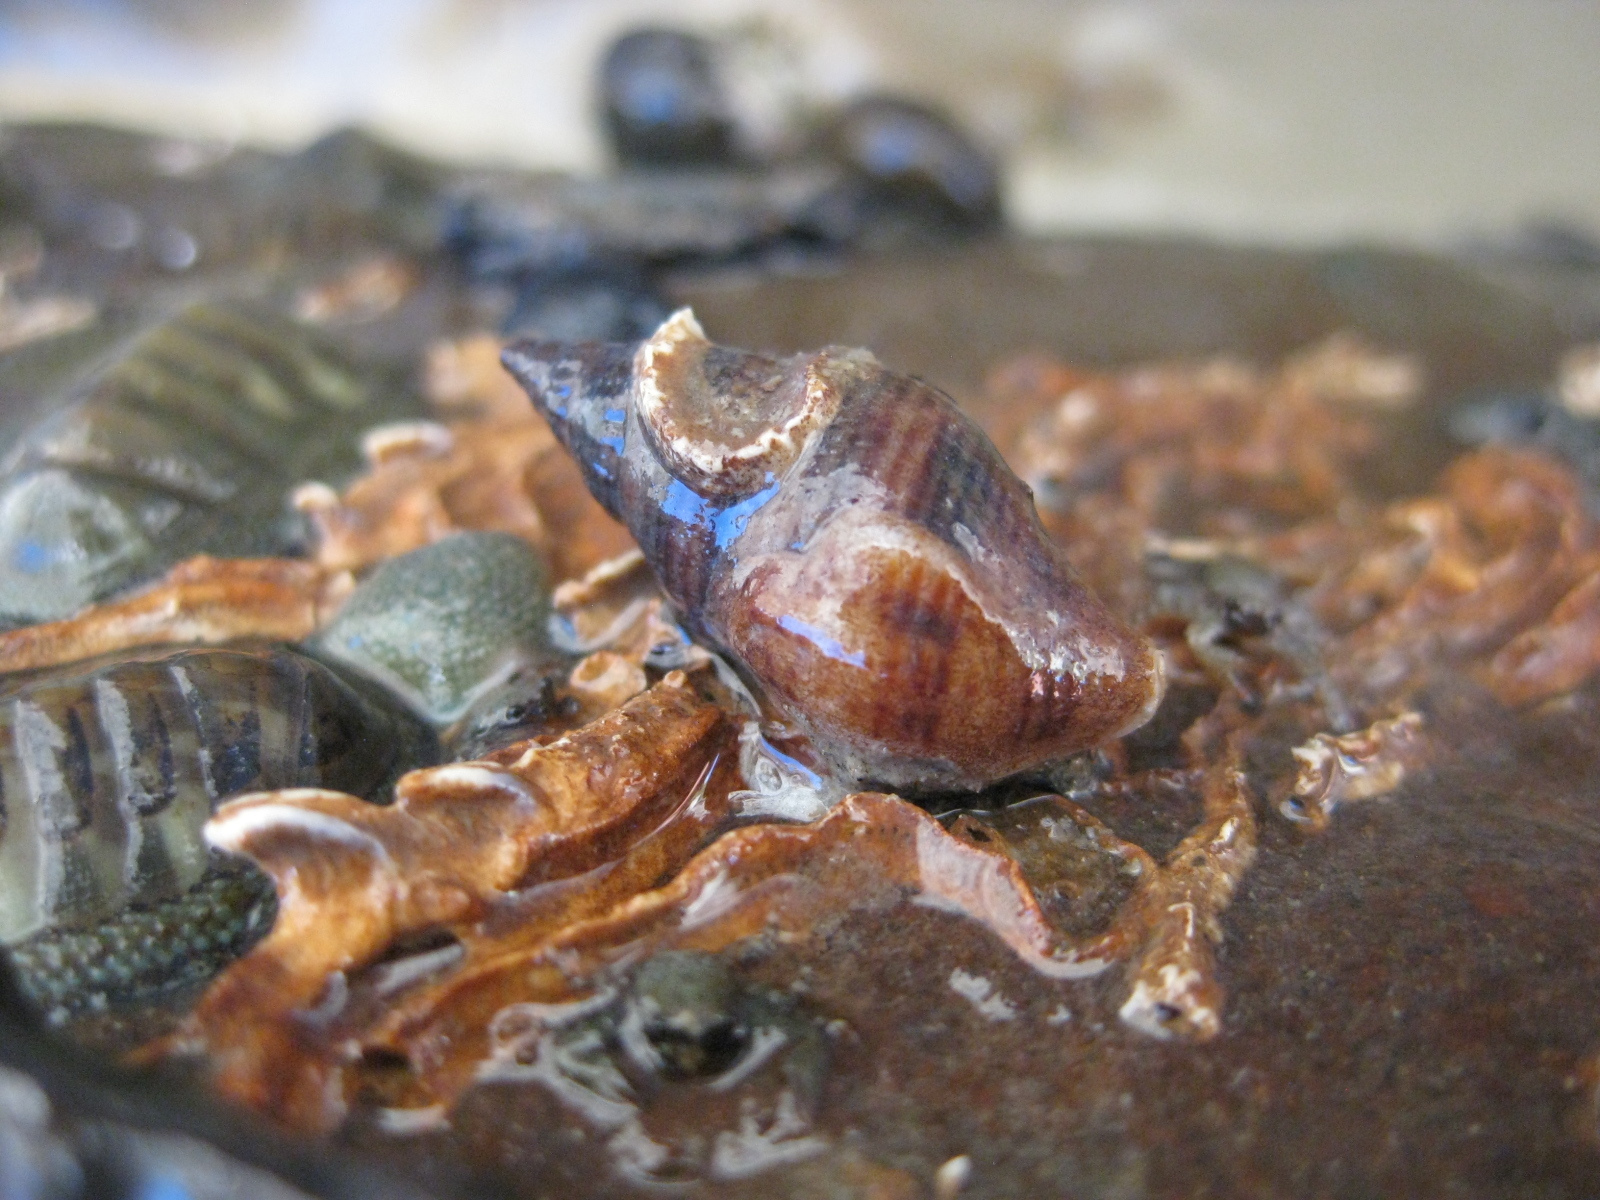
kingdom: Animalia
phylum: Mollusca
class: Gastropoda
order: Neogastropoda
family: Tudiclidae
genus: Buccinulum
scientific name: Buccinulum vittatum
